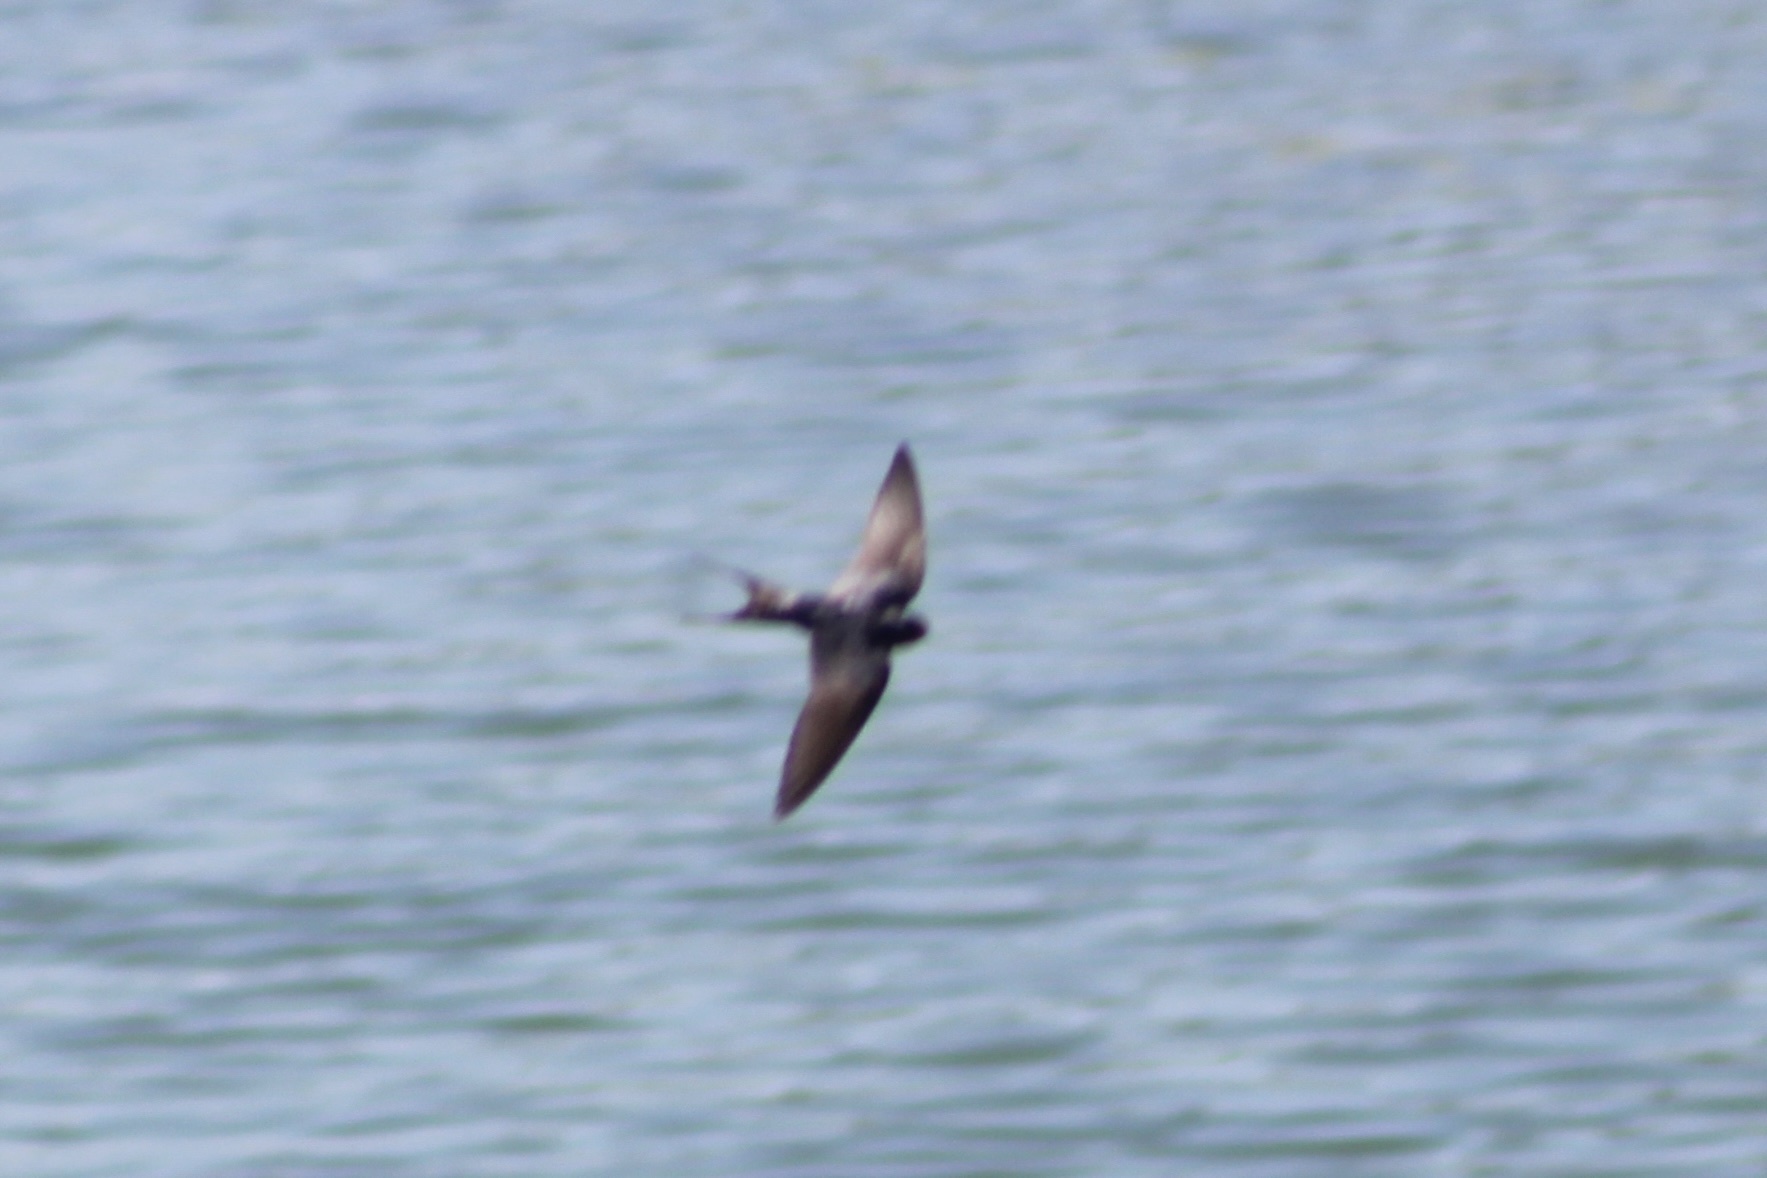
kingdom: Animalia
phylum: Chordata
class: Aves
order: Passeriformes
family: Hirundinidae
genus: Hirundo
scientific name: Hirundo rustica
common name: Barn swallow
